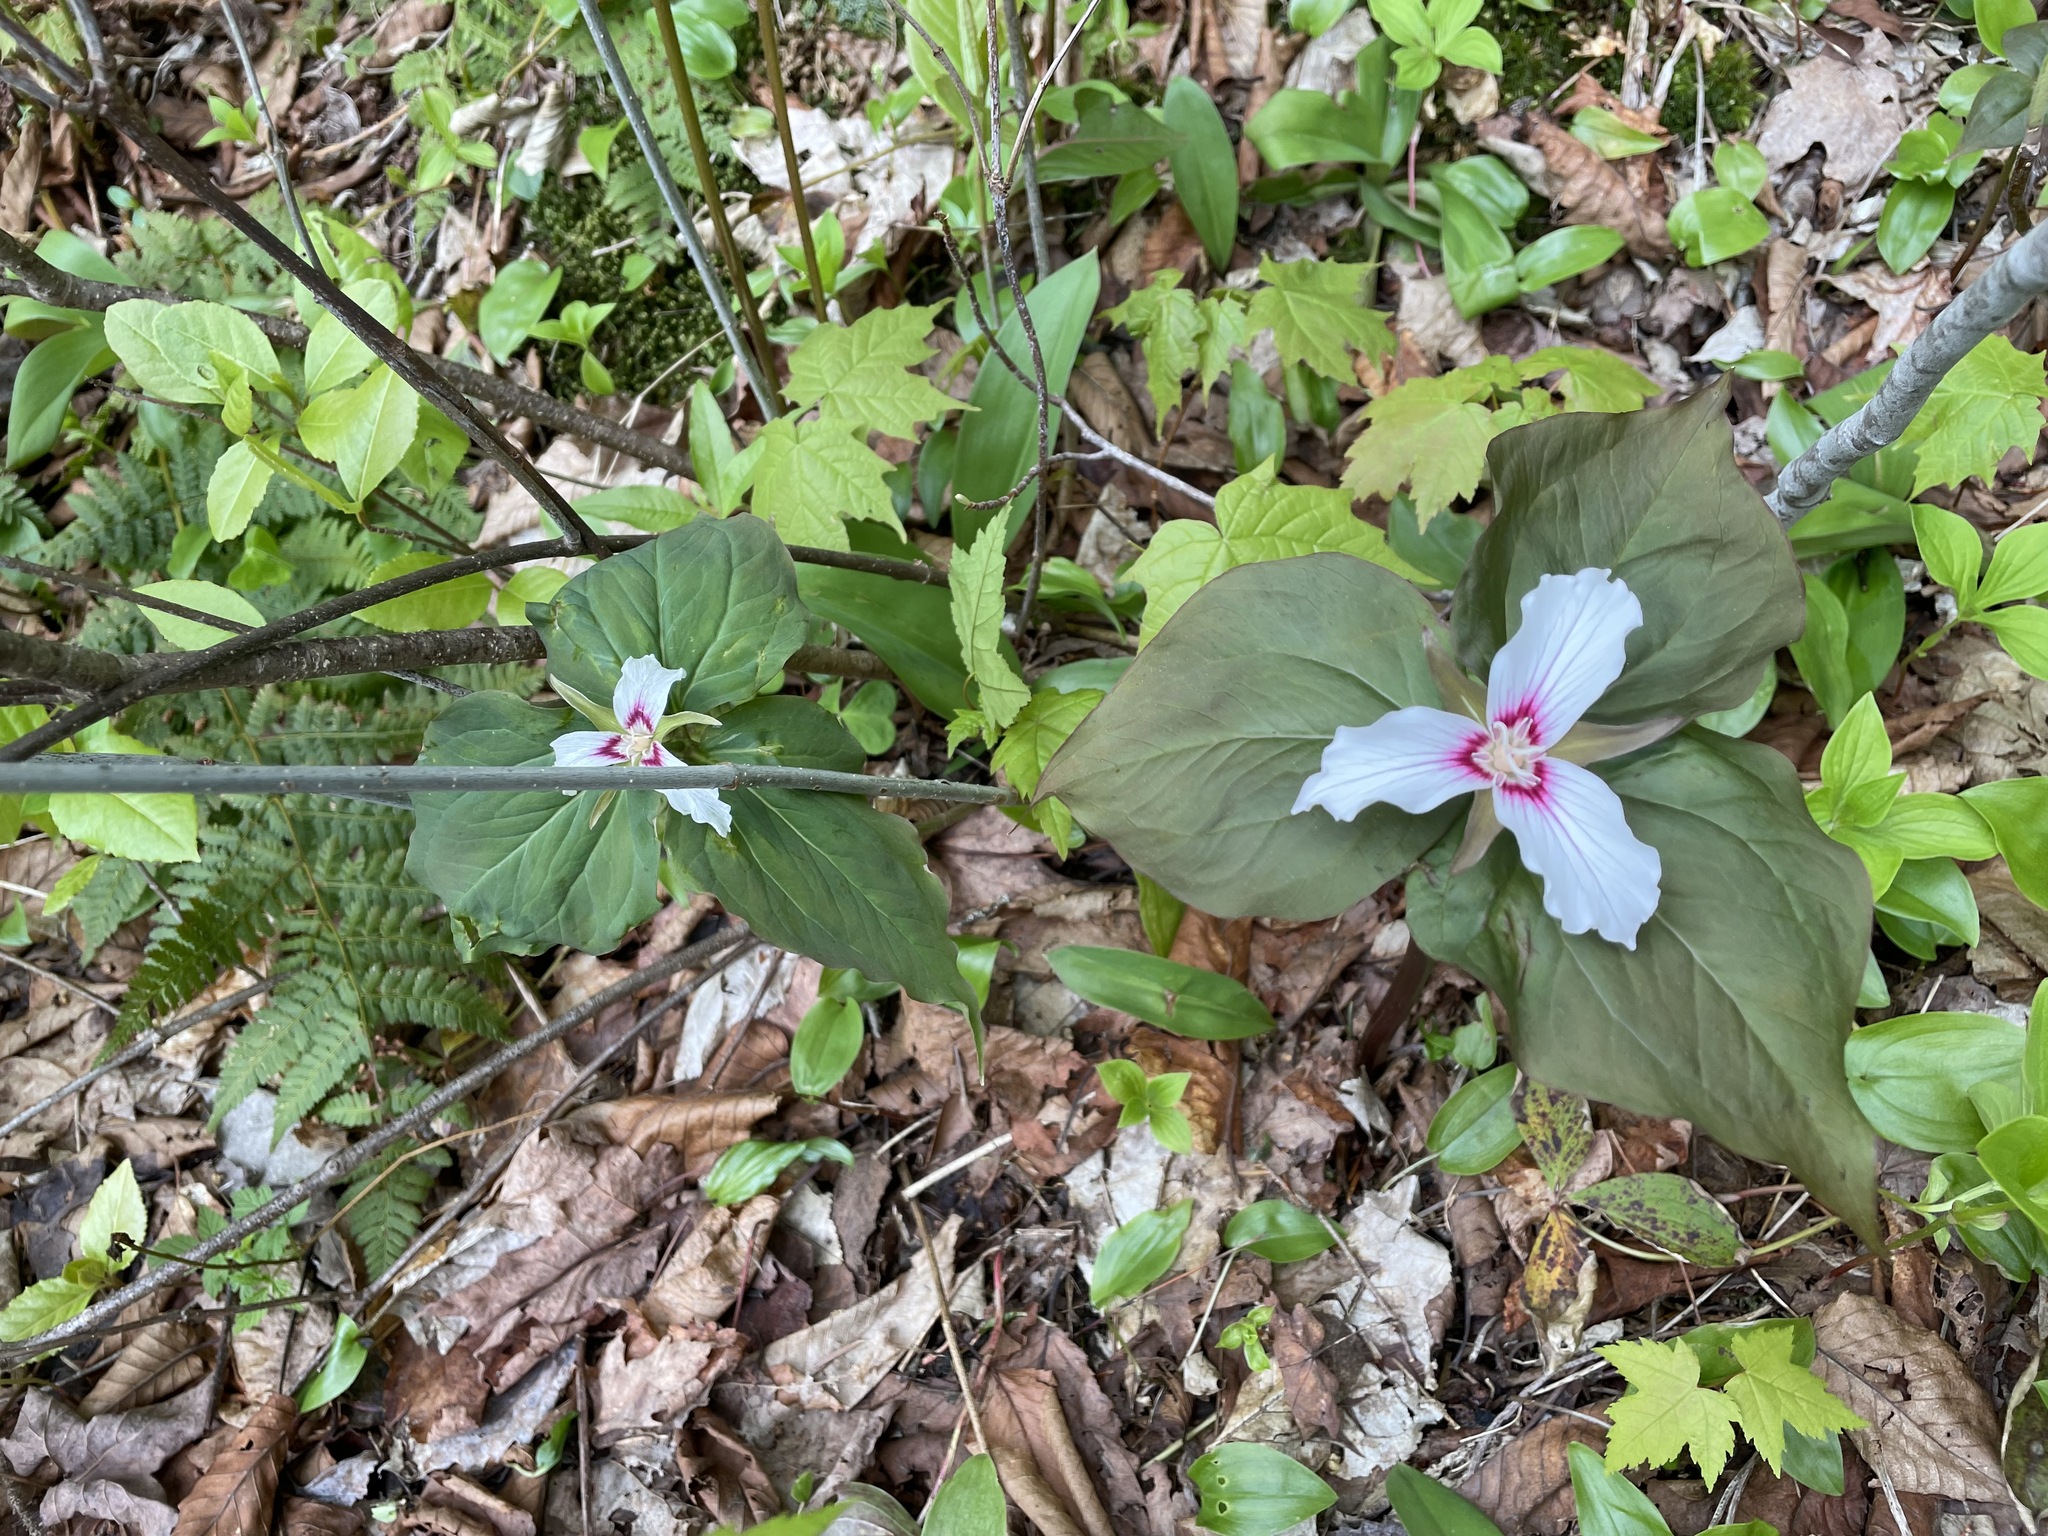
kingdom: Plantae
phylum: Tracheophyta
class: Liliopsida
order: Liliales
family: Melanthiaceae
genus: Trillium
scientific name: Trillium undulatum
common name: Paint trillium
